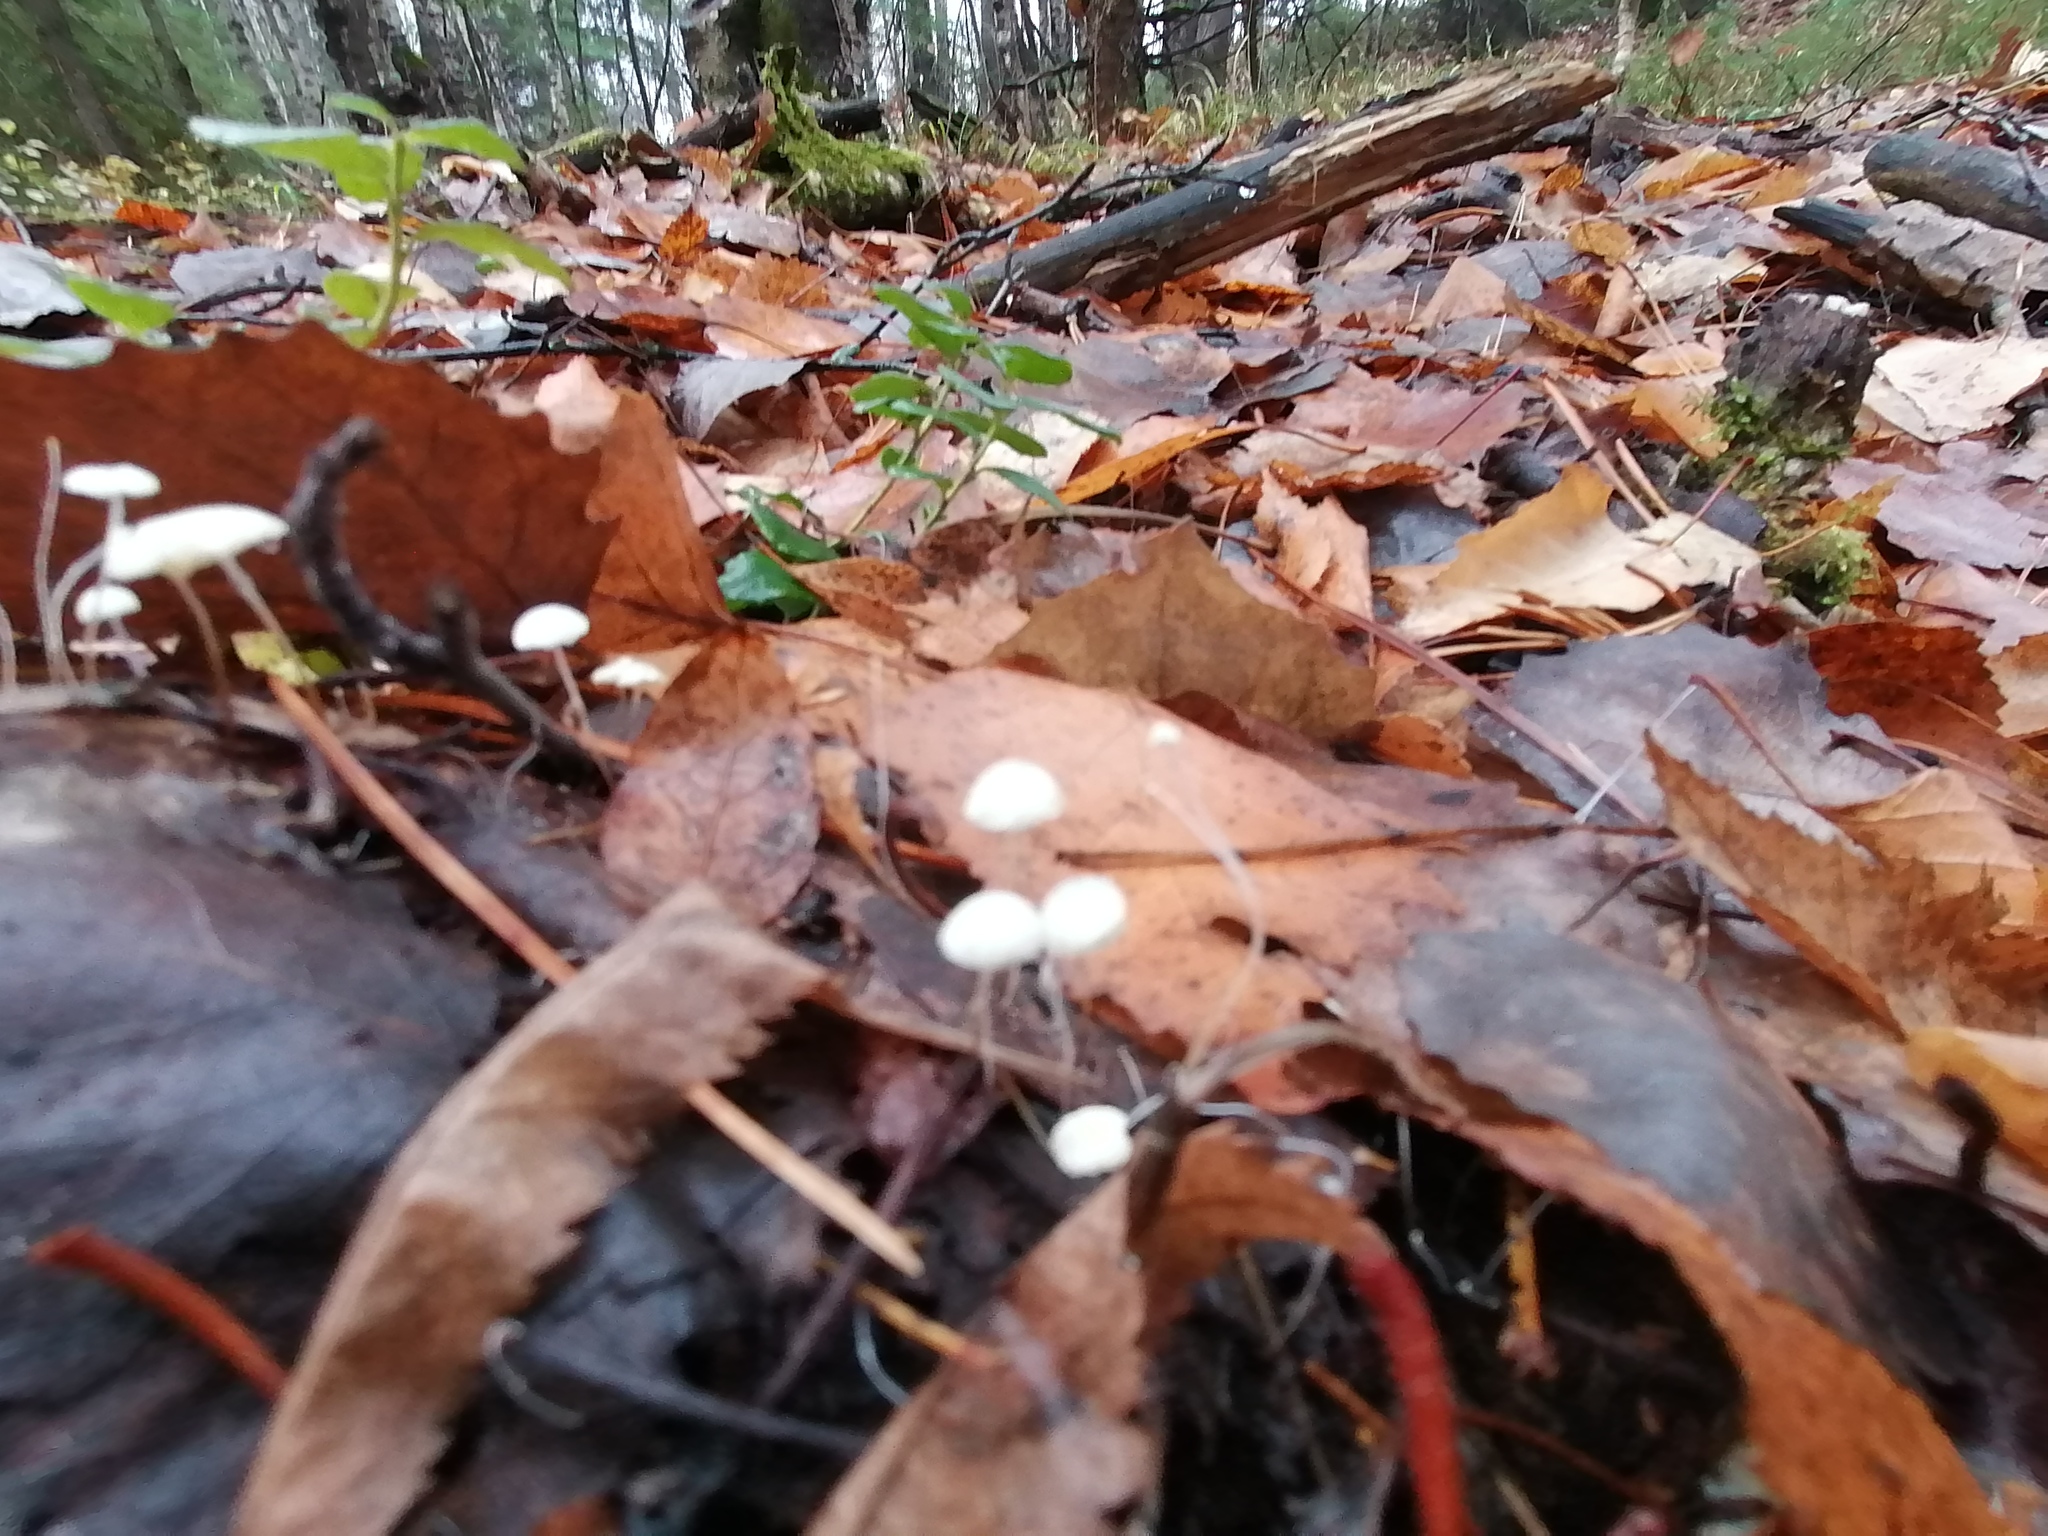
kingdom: Fungi
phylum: Basidiomycota
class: Agaricomycetes
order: Agaricales
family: Physalacriaceae
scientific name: Physalacriaceae
